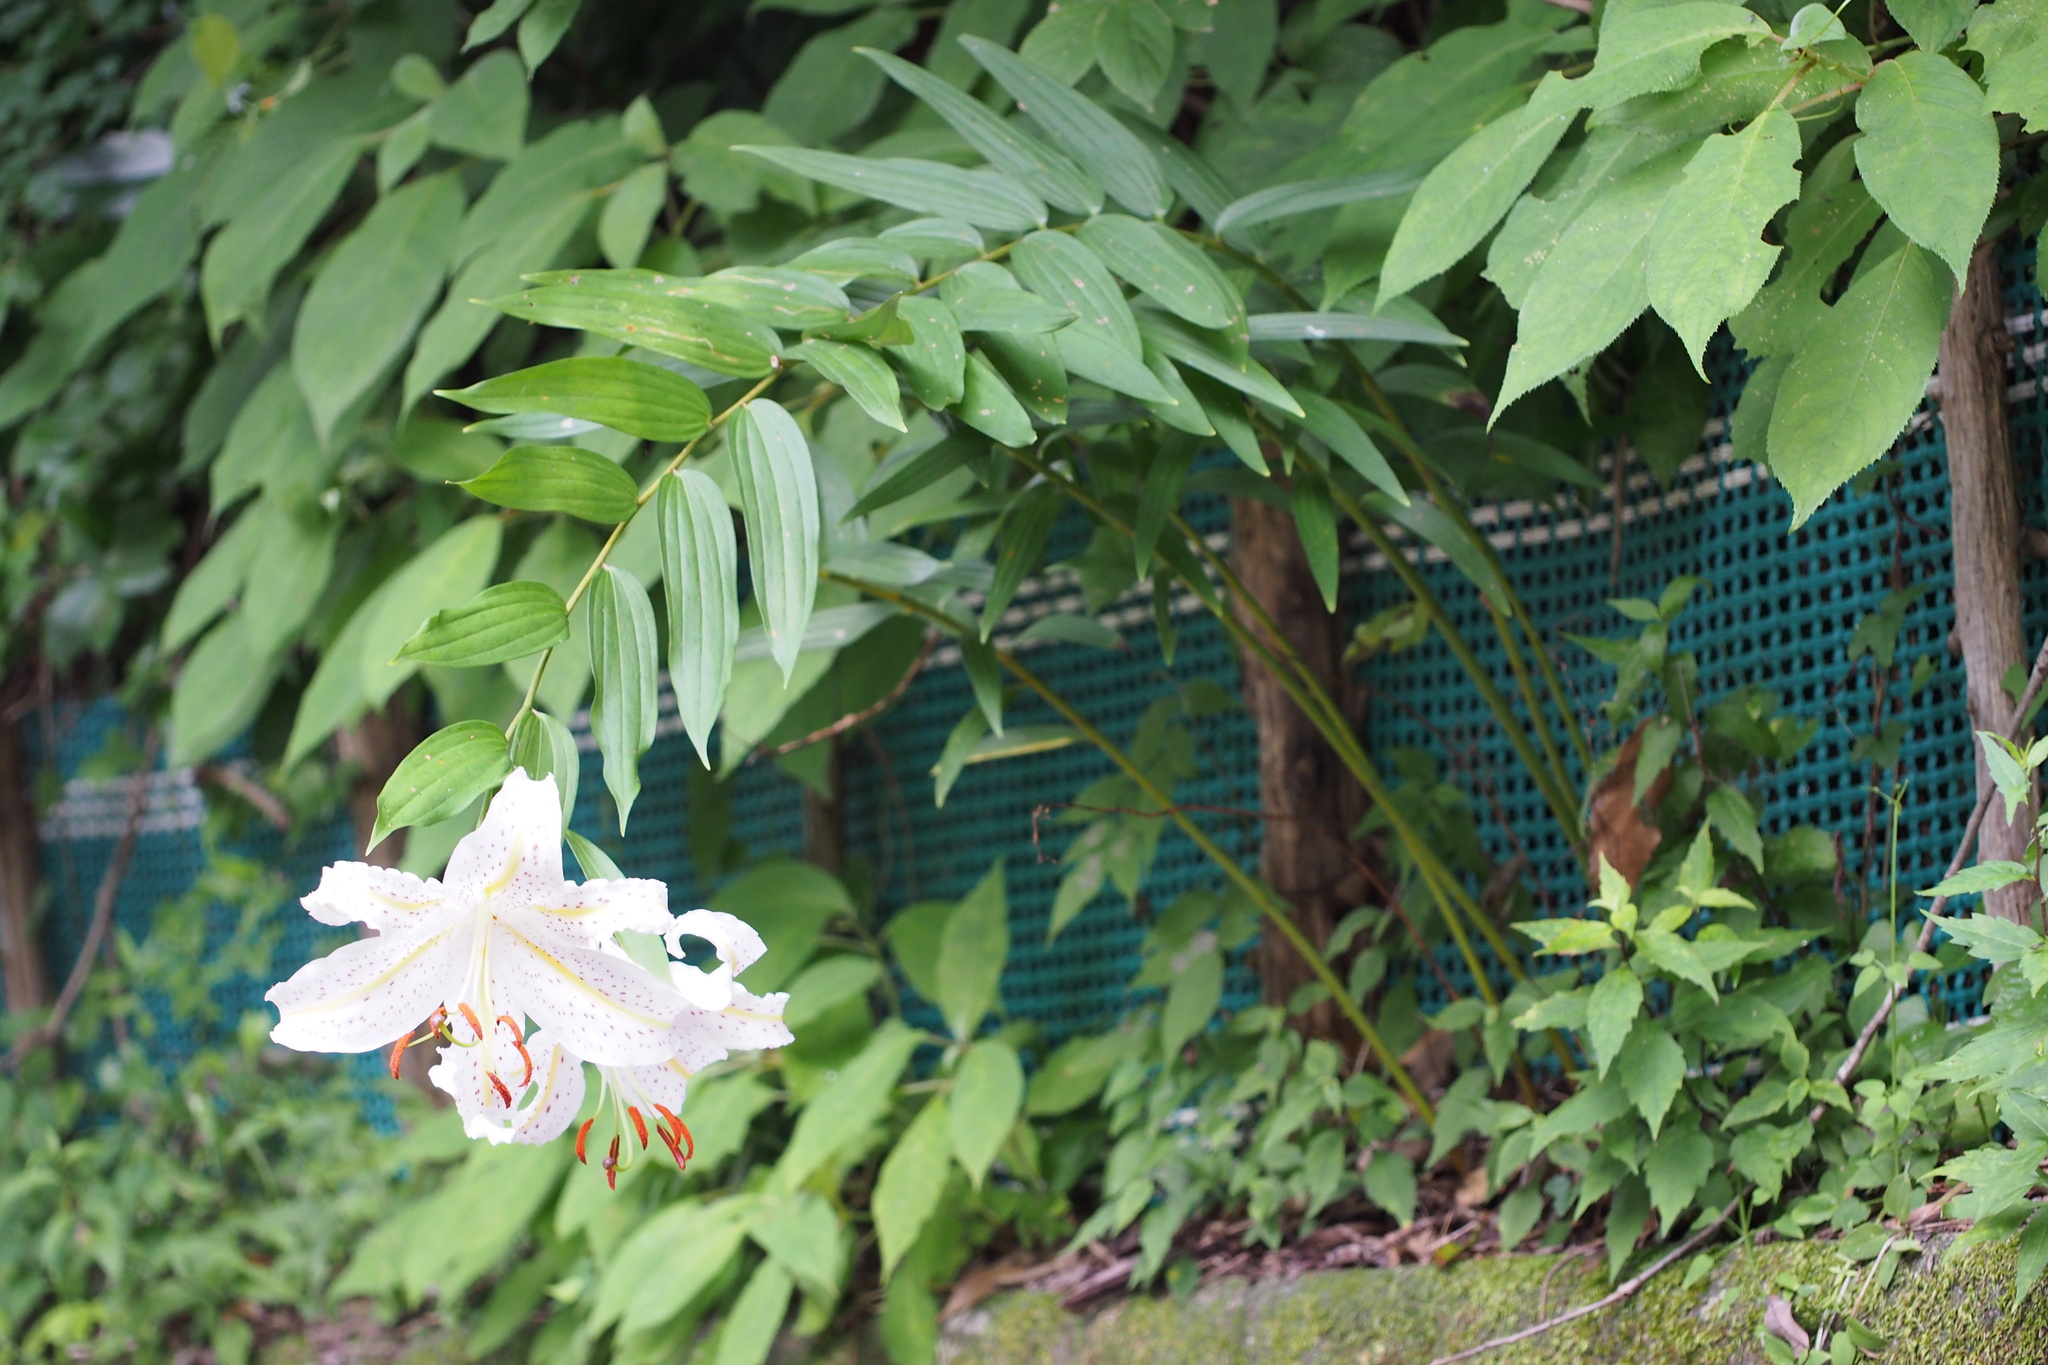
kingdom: Plantae
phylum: Tracheophyta
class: Liliopsida
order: Liliales
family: Liliaceae
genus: Lilium
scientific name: Lilium auratum
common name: Golden-ray lily
